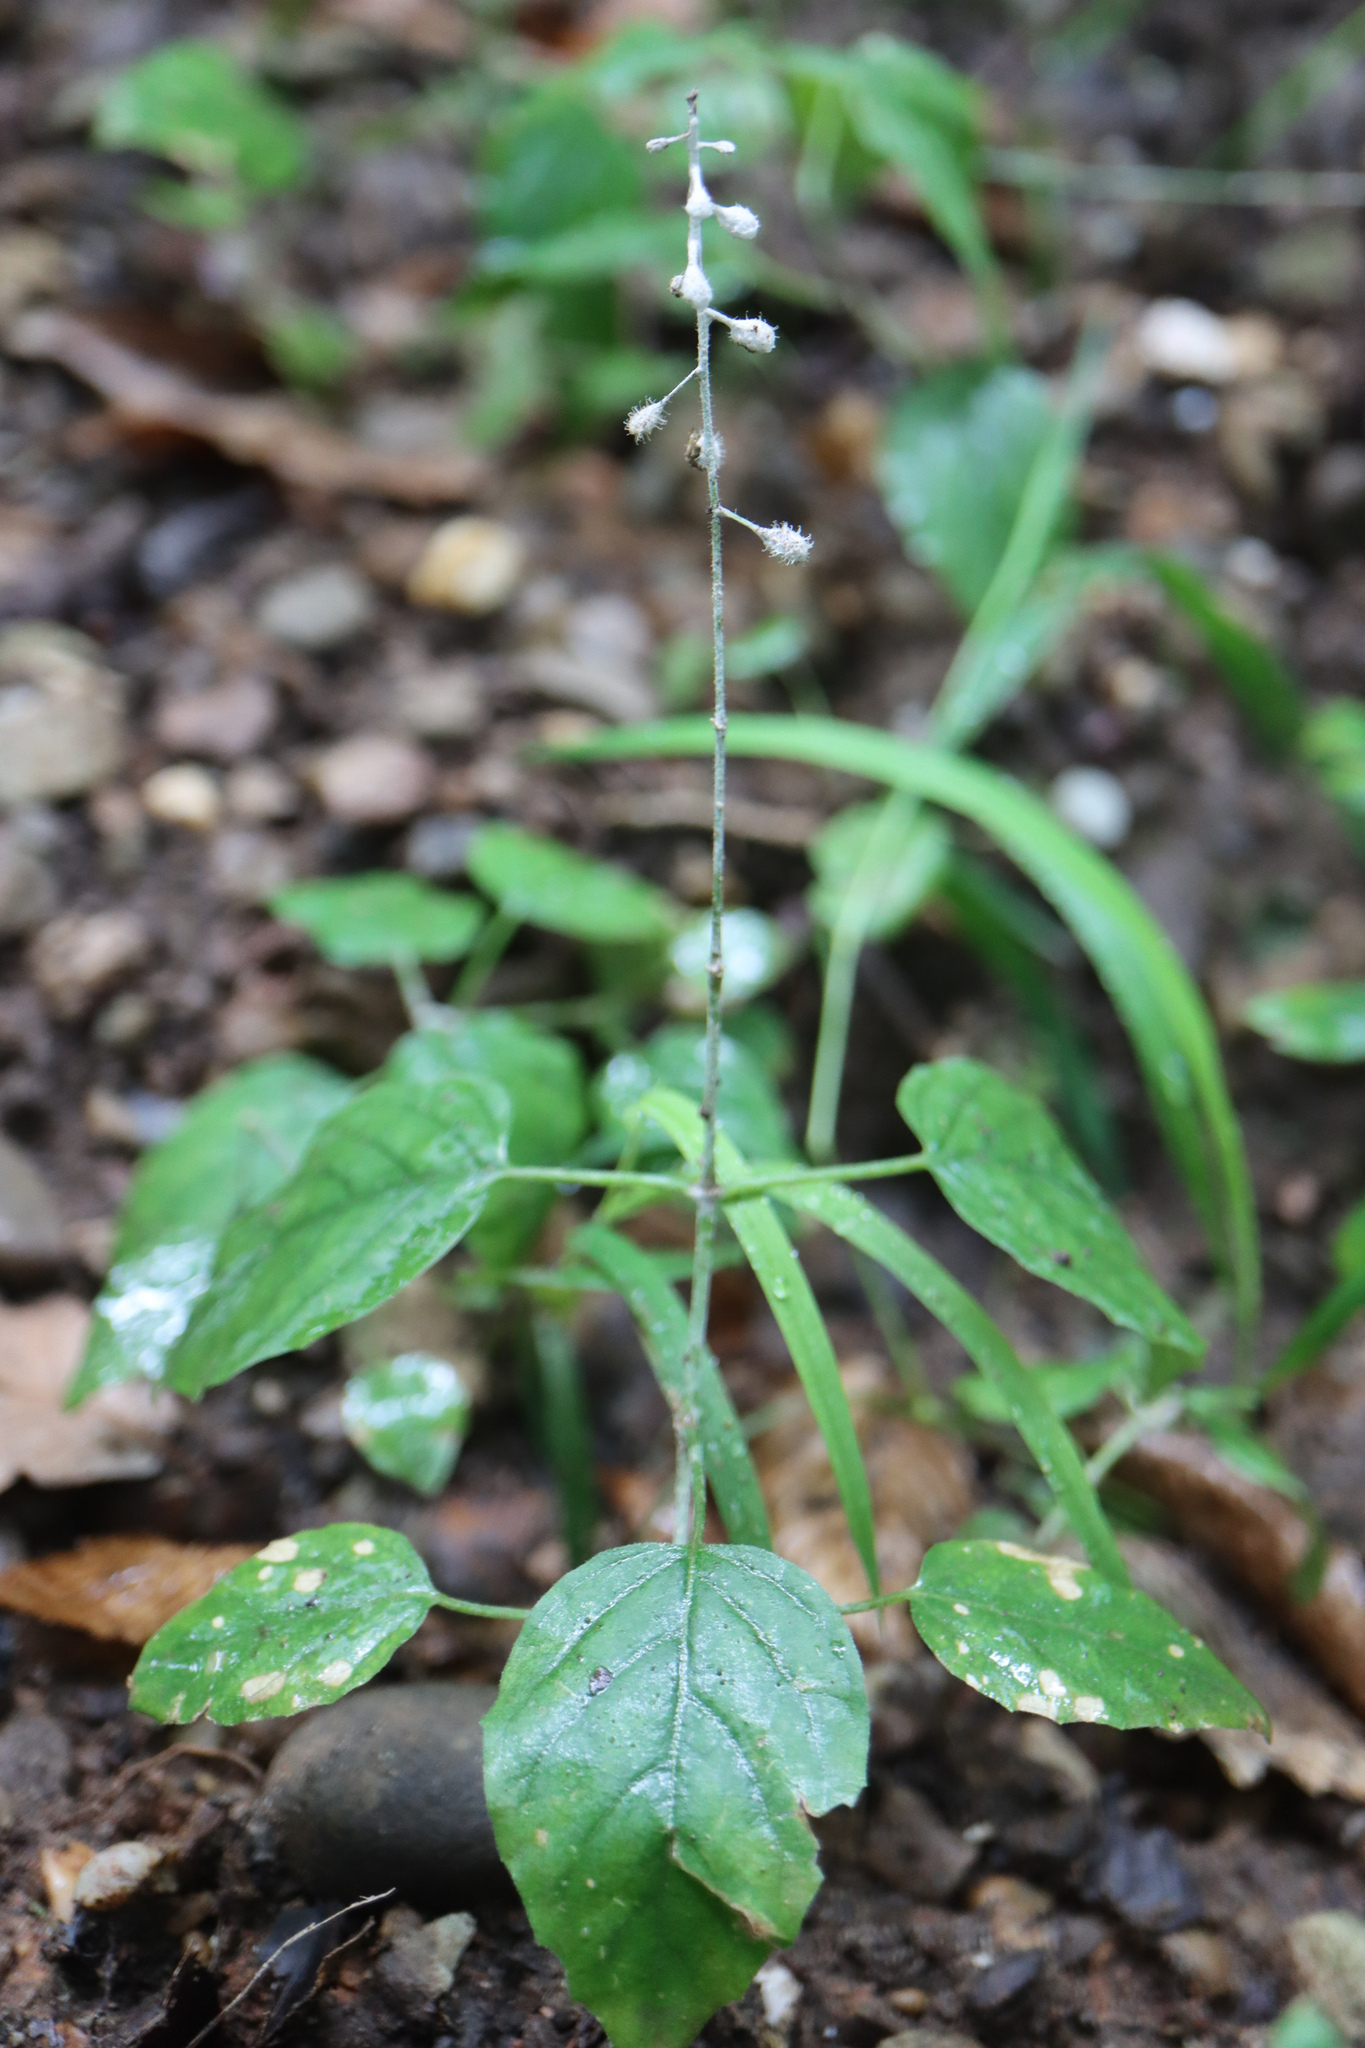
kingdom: Plantae
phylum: Tracheophyta
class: Magnoliopsida
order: Myrtales
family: Onagraceae
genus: Circaea
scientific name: Circaea lutetiana
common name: Enchanter's-nightshade
